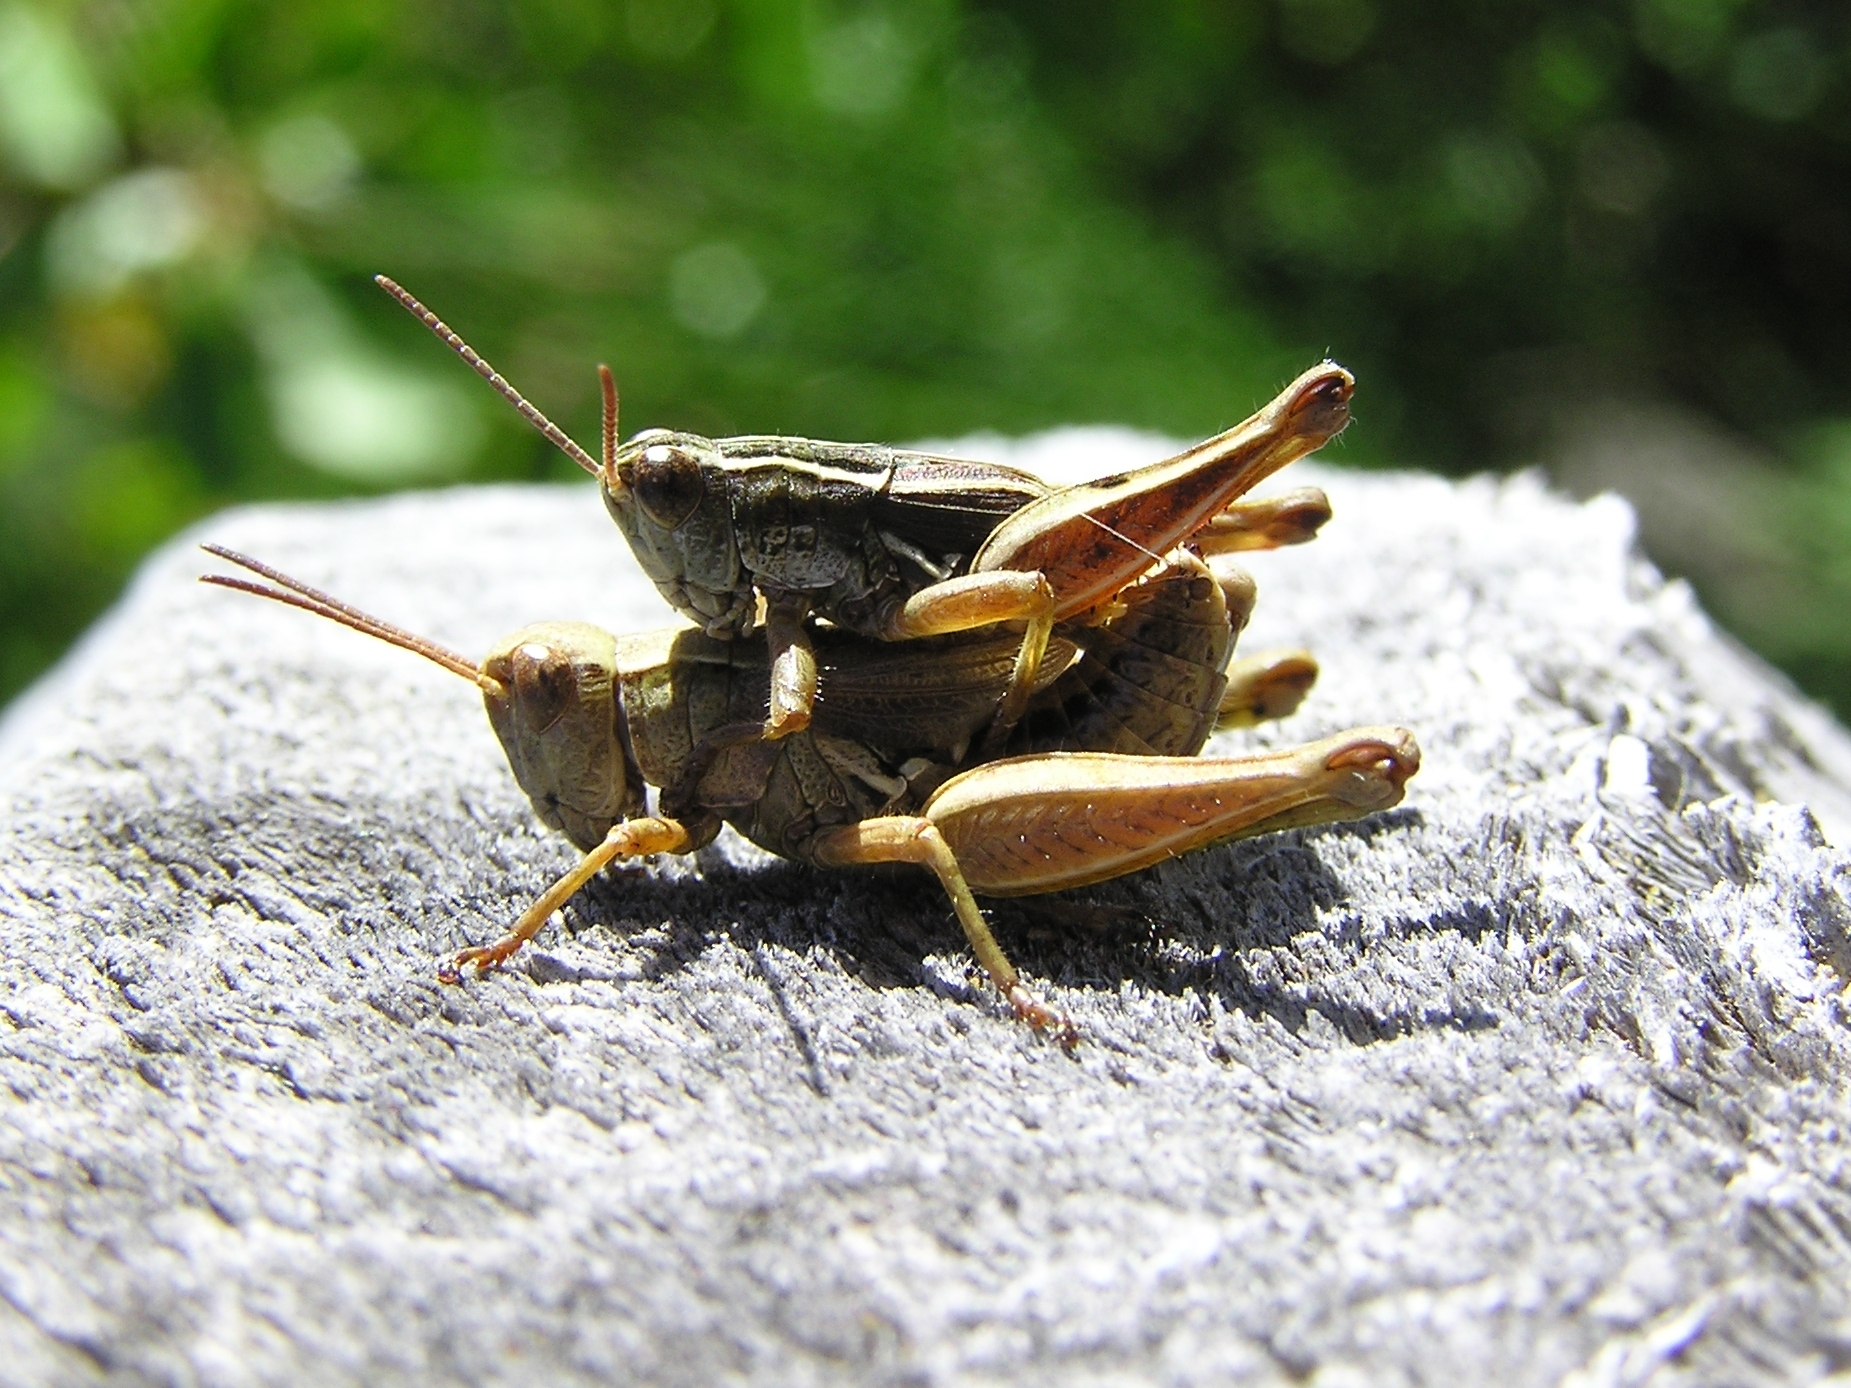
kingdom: Animalia
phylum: Arthropoda
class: Insecta
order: Orthoptera
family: Acrididae
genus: Phaulacridium
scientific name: Phaulacridium marginale
